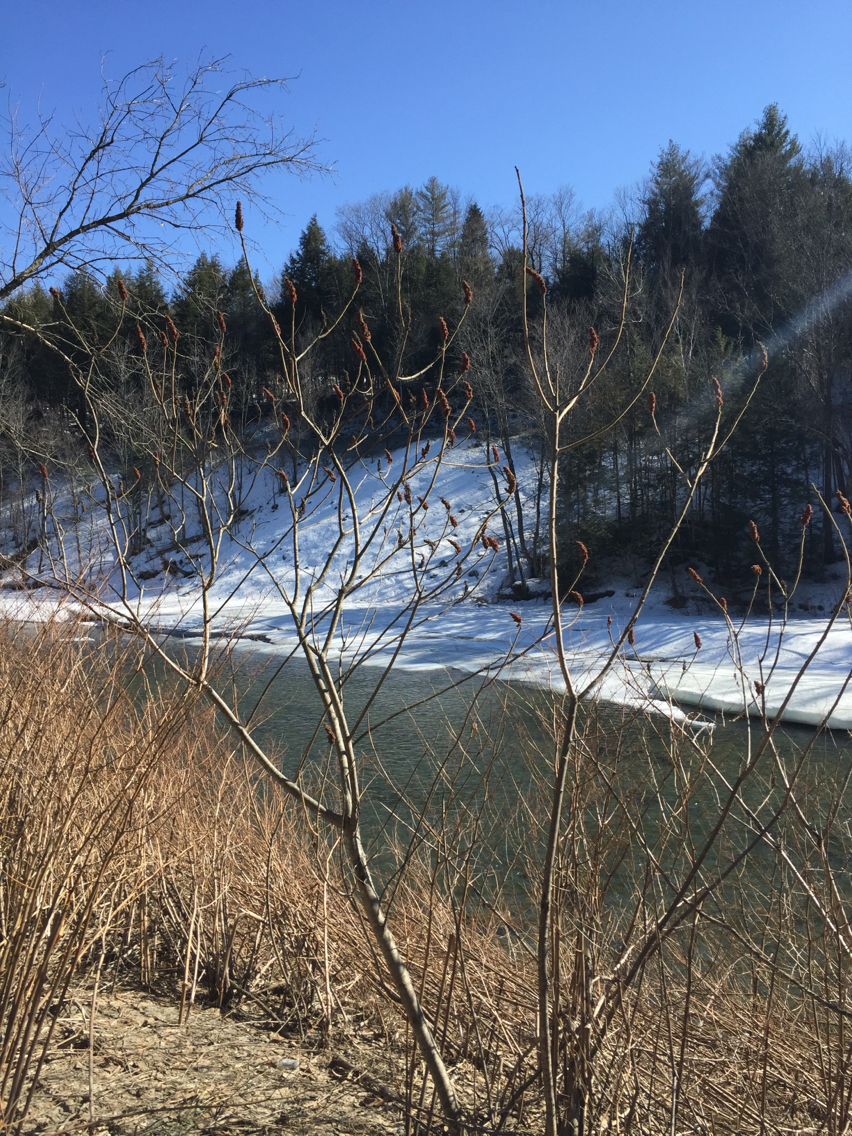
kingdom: Plantae
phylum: Tracheophyta
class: Magnoliopsida
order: Sapindales
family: Anacardiaceae
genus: Rhus
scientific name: Rhus typhina
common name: Staghorn sumac
